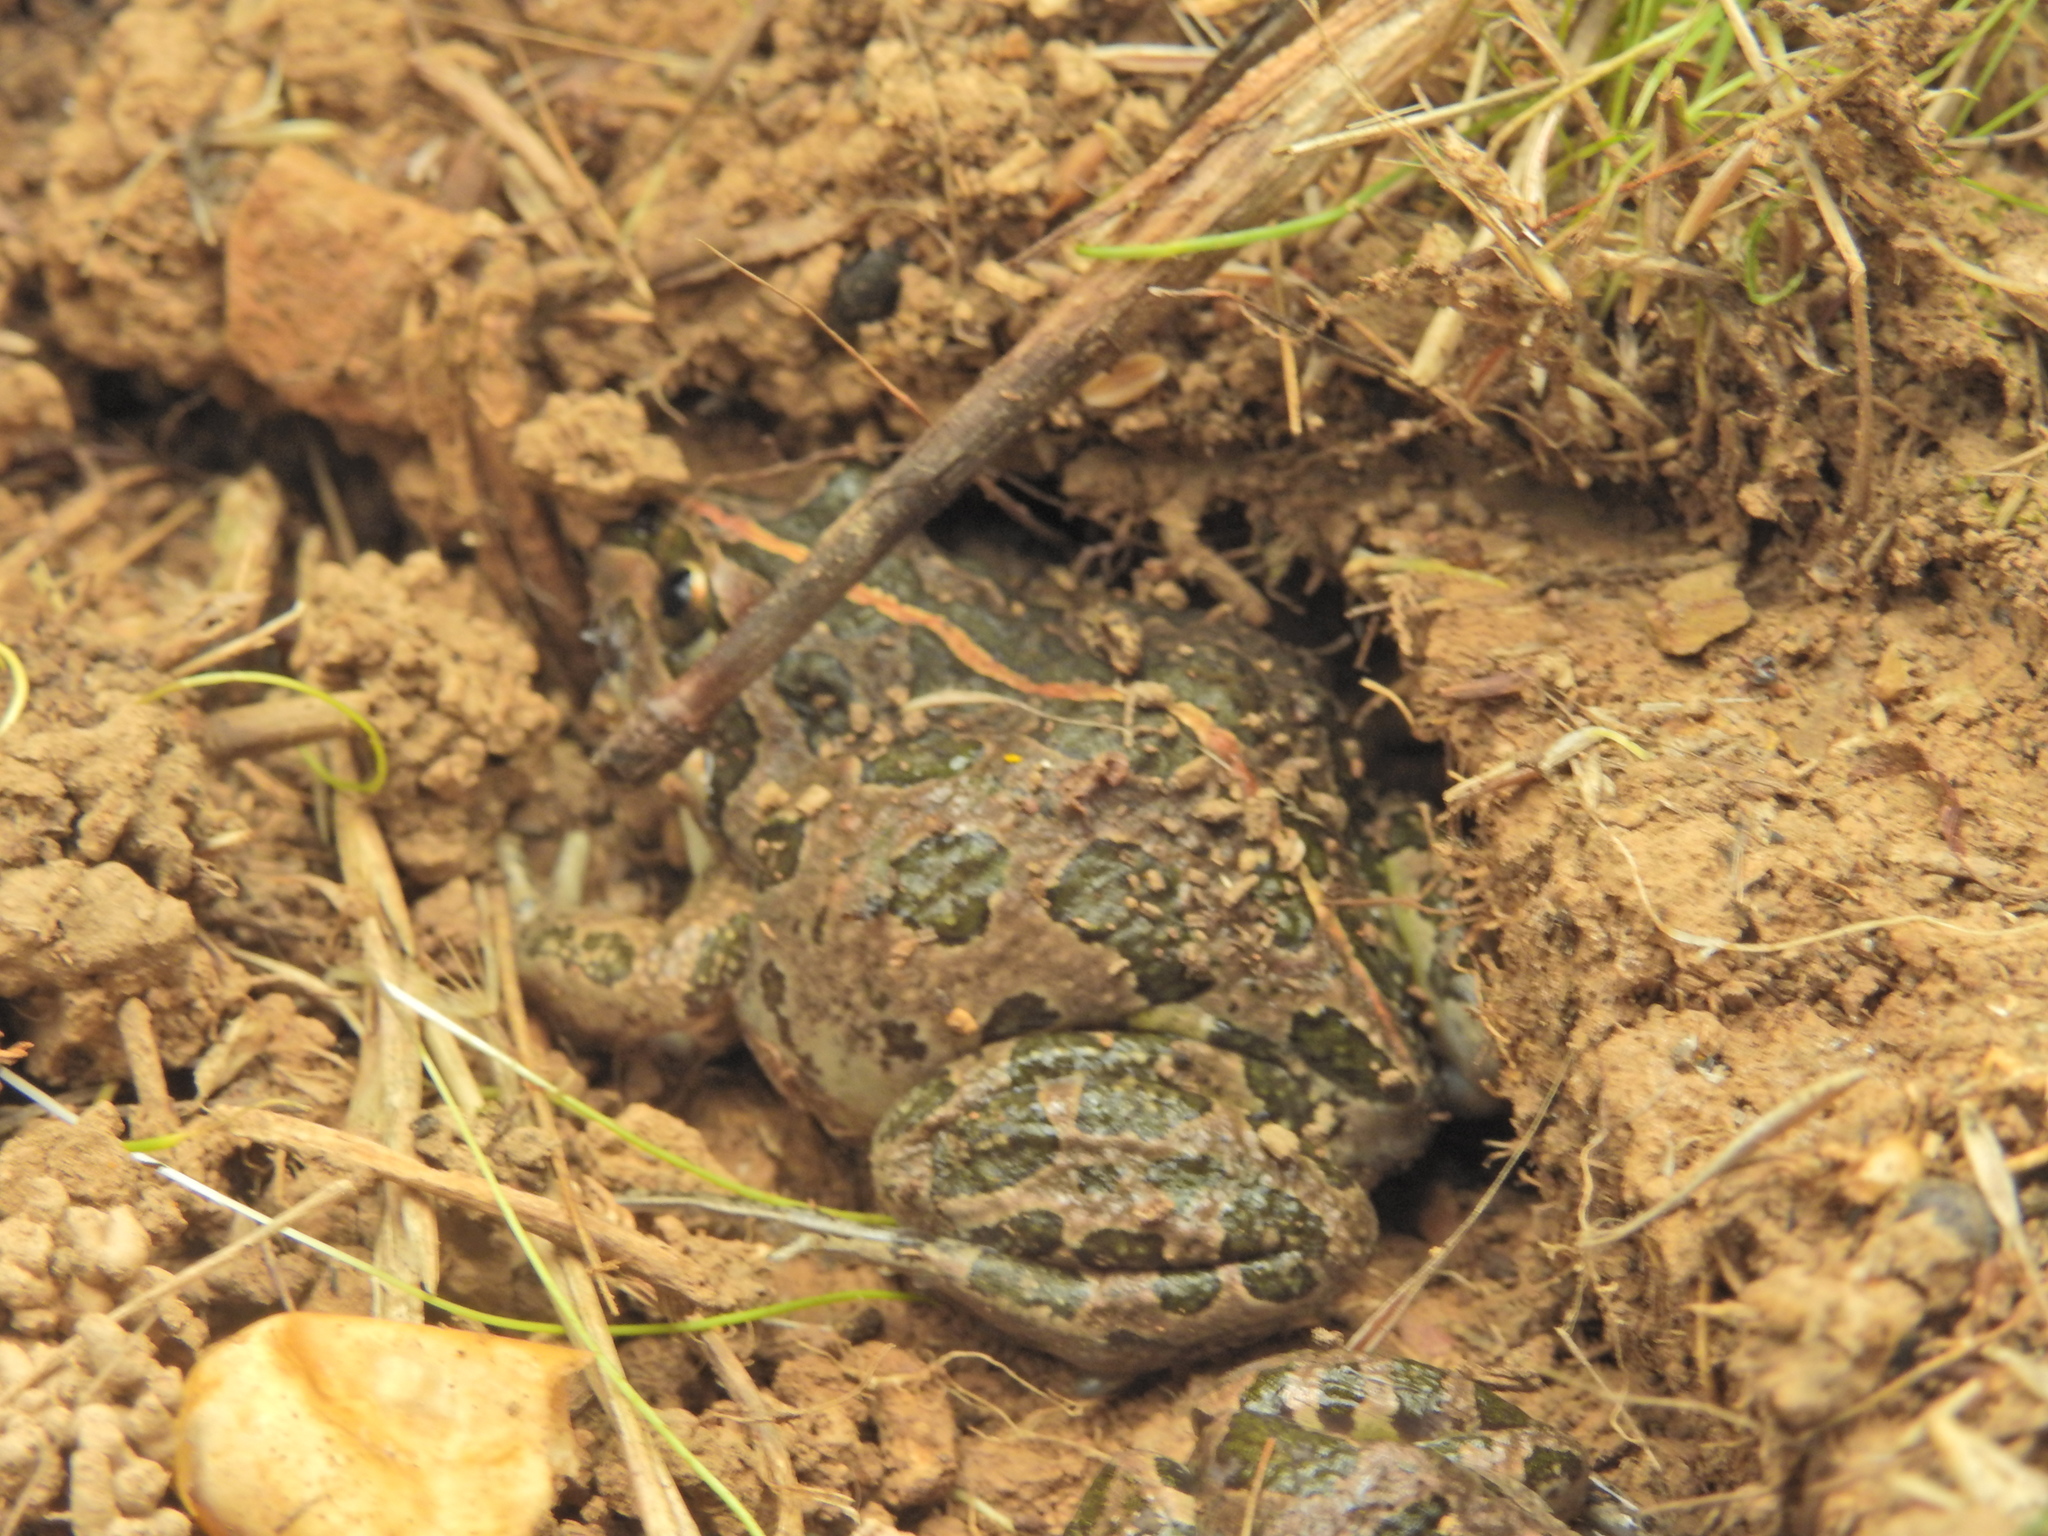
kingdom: Animalia
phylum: Chordata
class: Amphibia
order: Anura
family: Limnodynastidae
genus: Limnodynastes
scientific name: Limnodynastes tasmaniensis
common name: Spotted marsh frog
